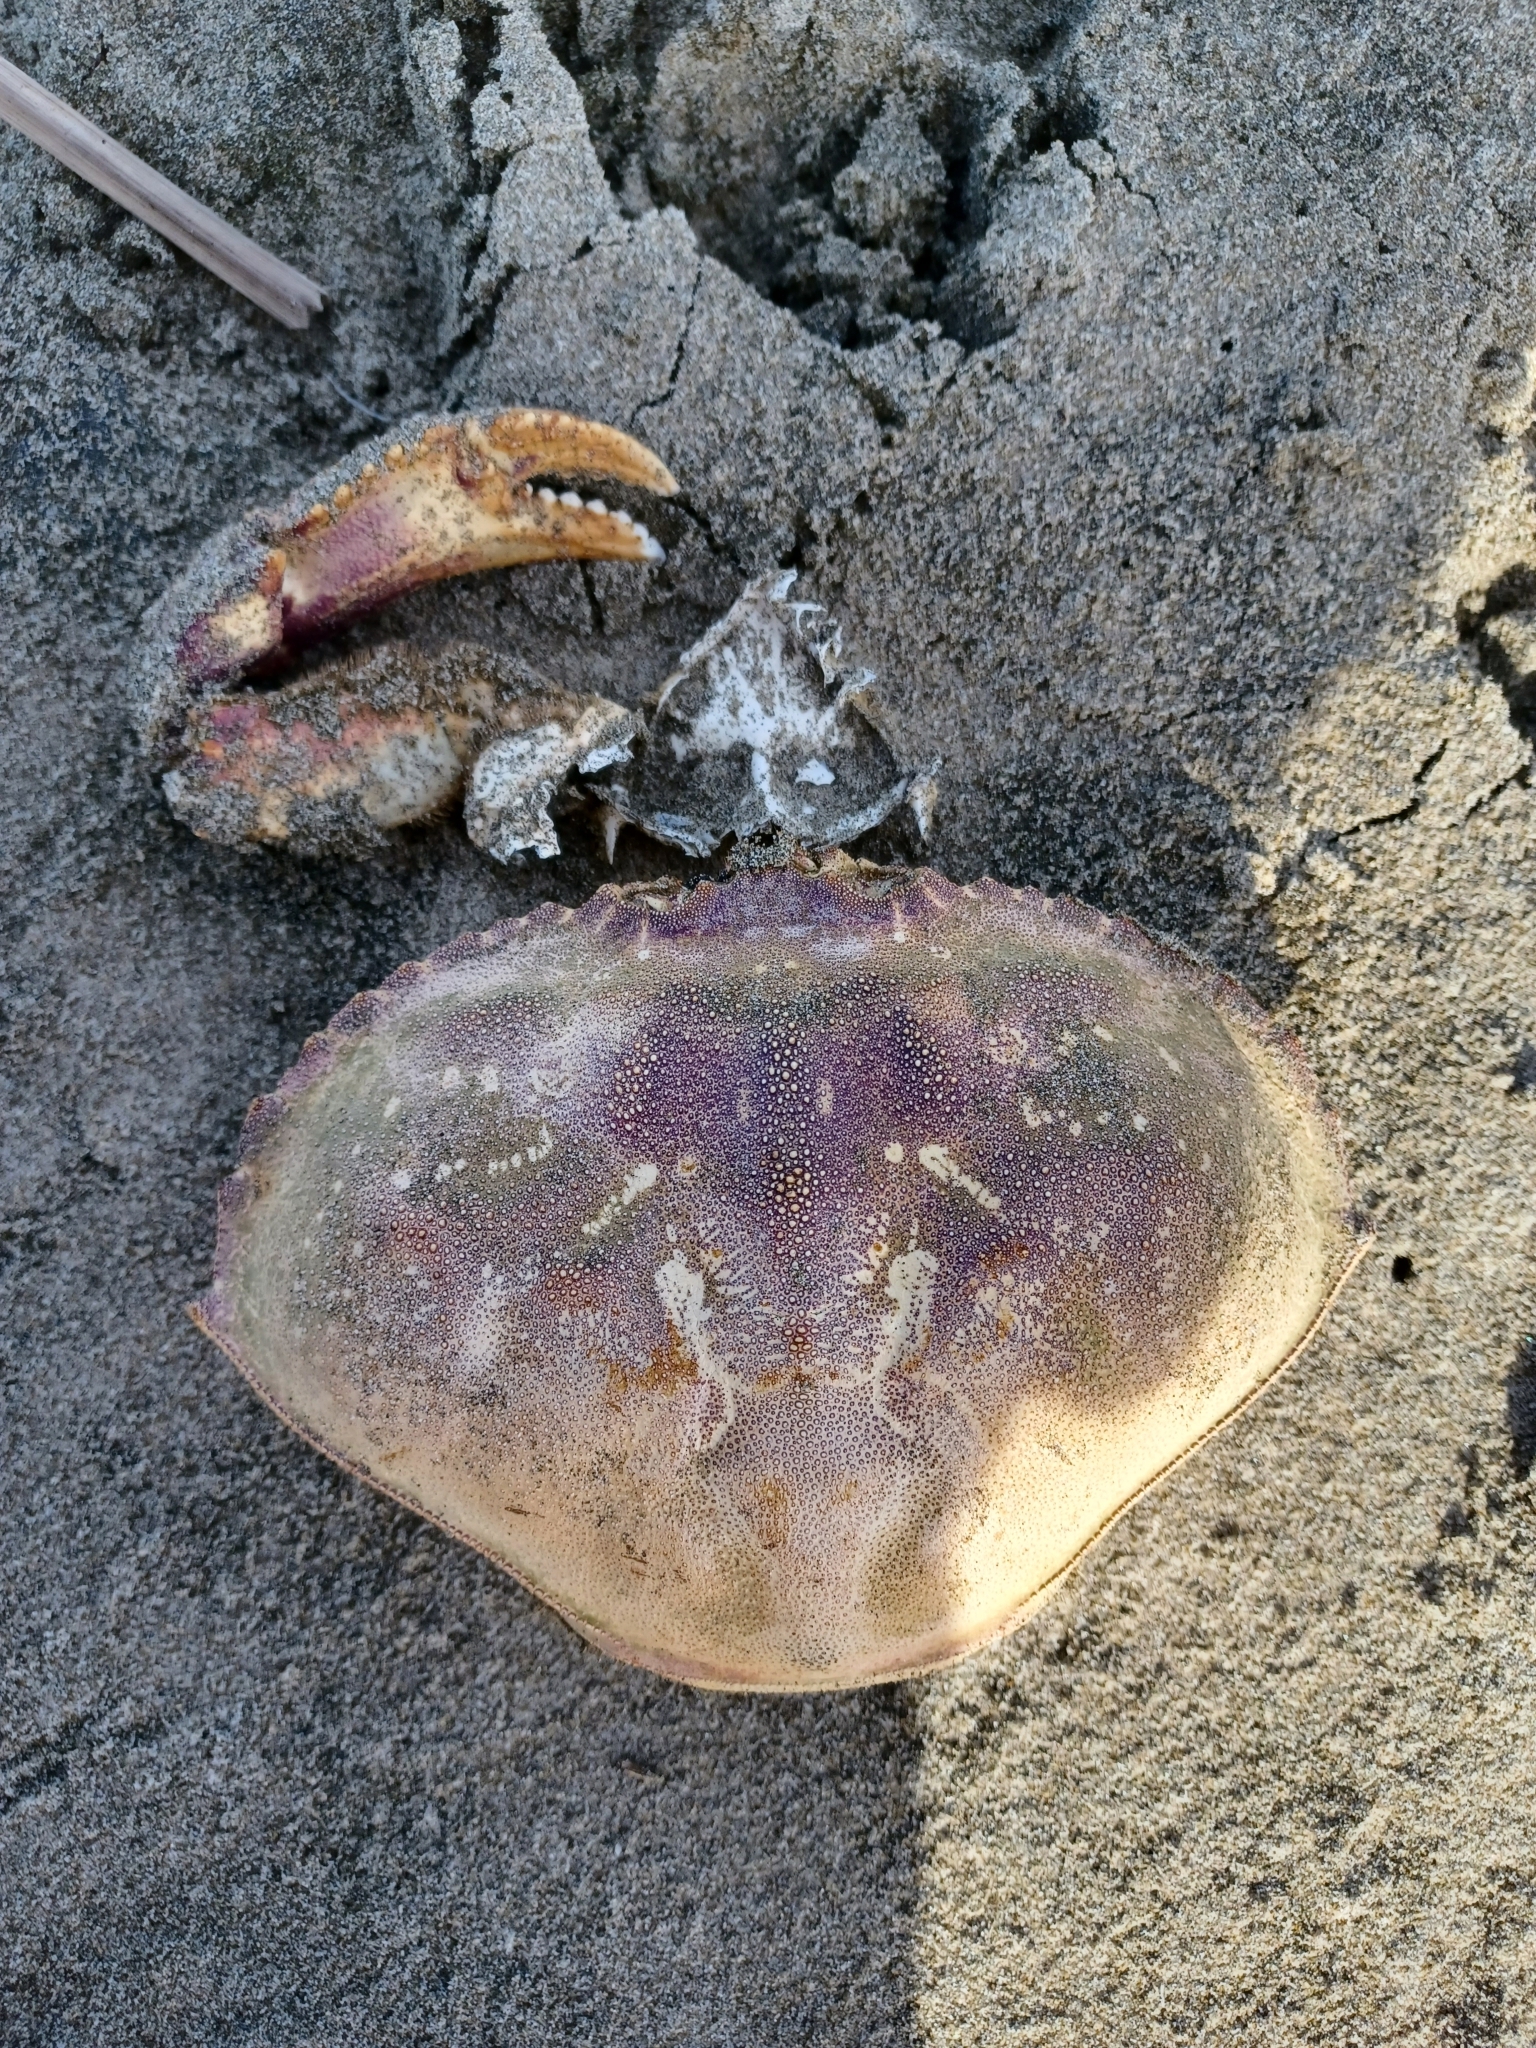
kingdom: Animalia
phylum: Arthropoda
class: Malacostraca
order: Decapoda
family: Cancridae
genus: Metacarcinus
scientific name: Metacarcinus magister
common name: Californian crab
